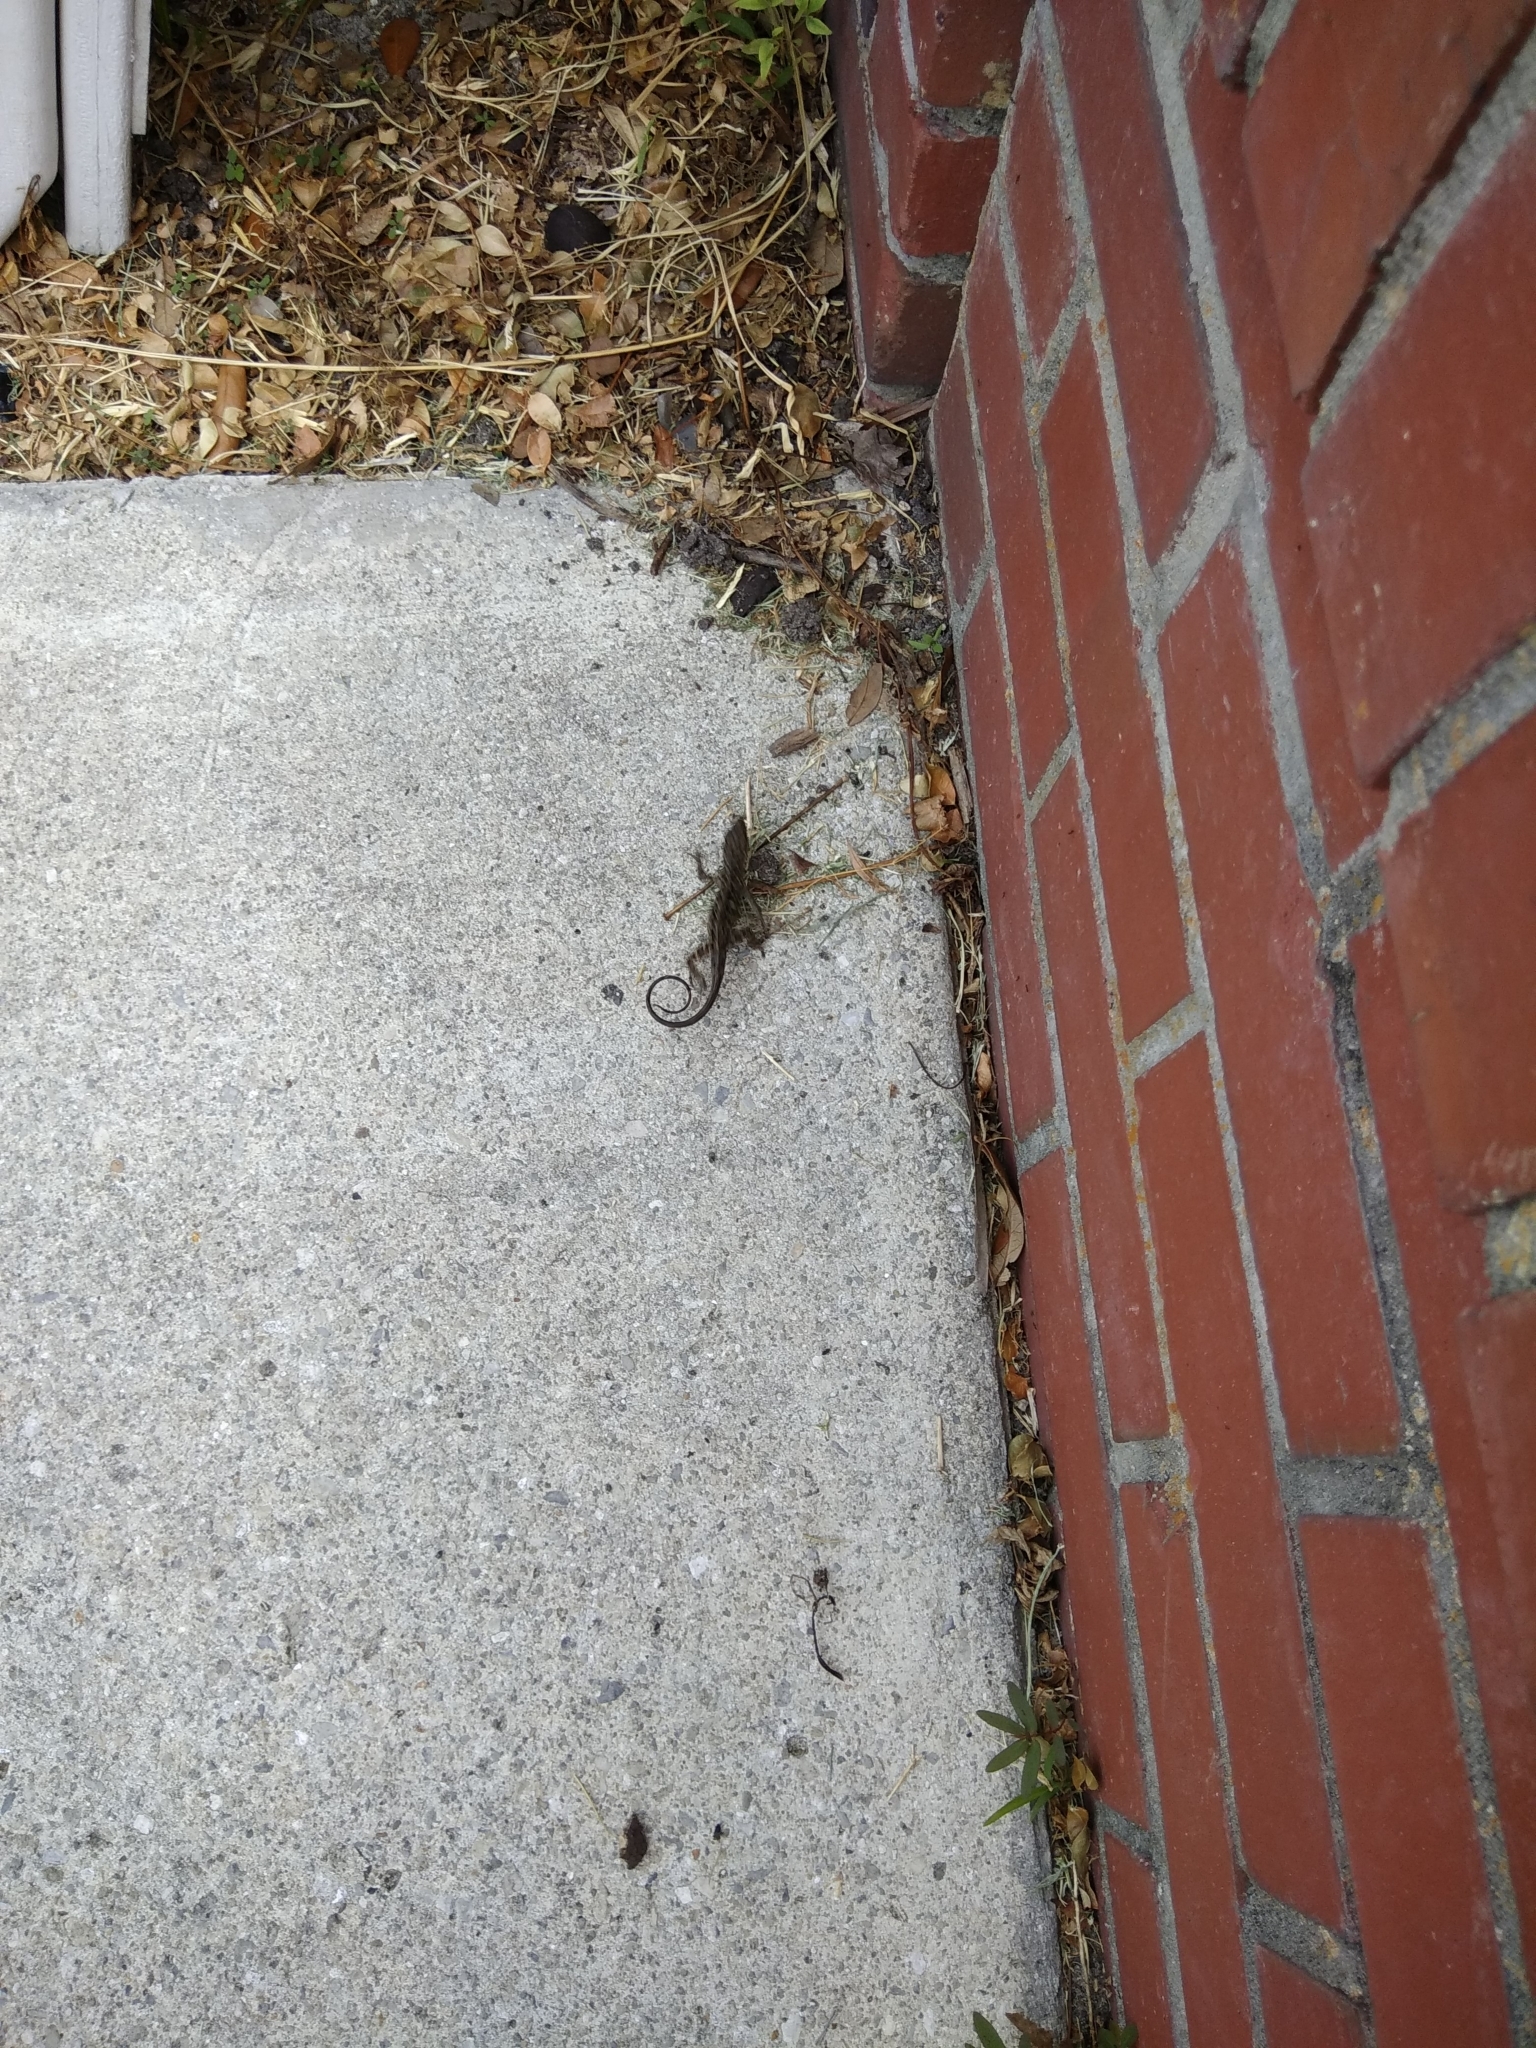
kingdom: Animalia
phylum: Chordata
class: Squamata
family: Dactyloidae
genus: Anolis
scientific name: Anolis sagrei
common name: Brown anole
